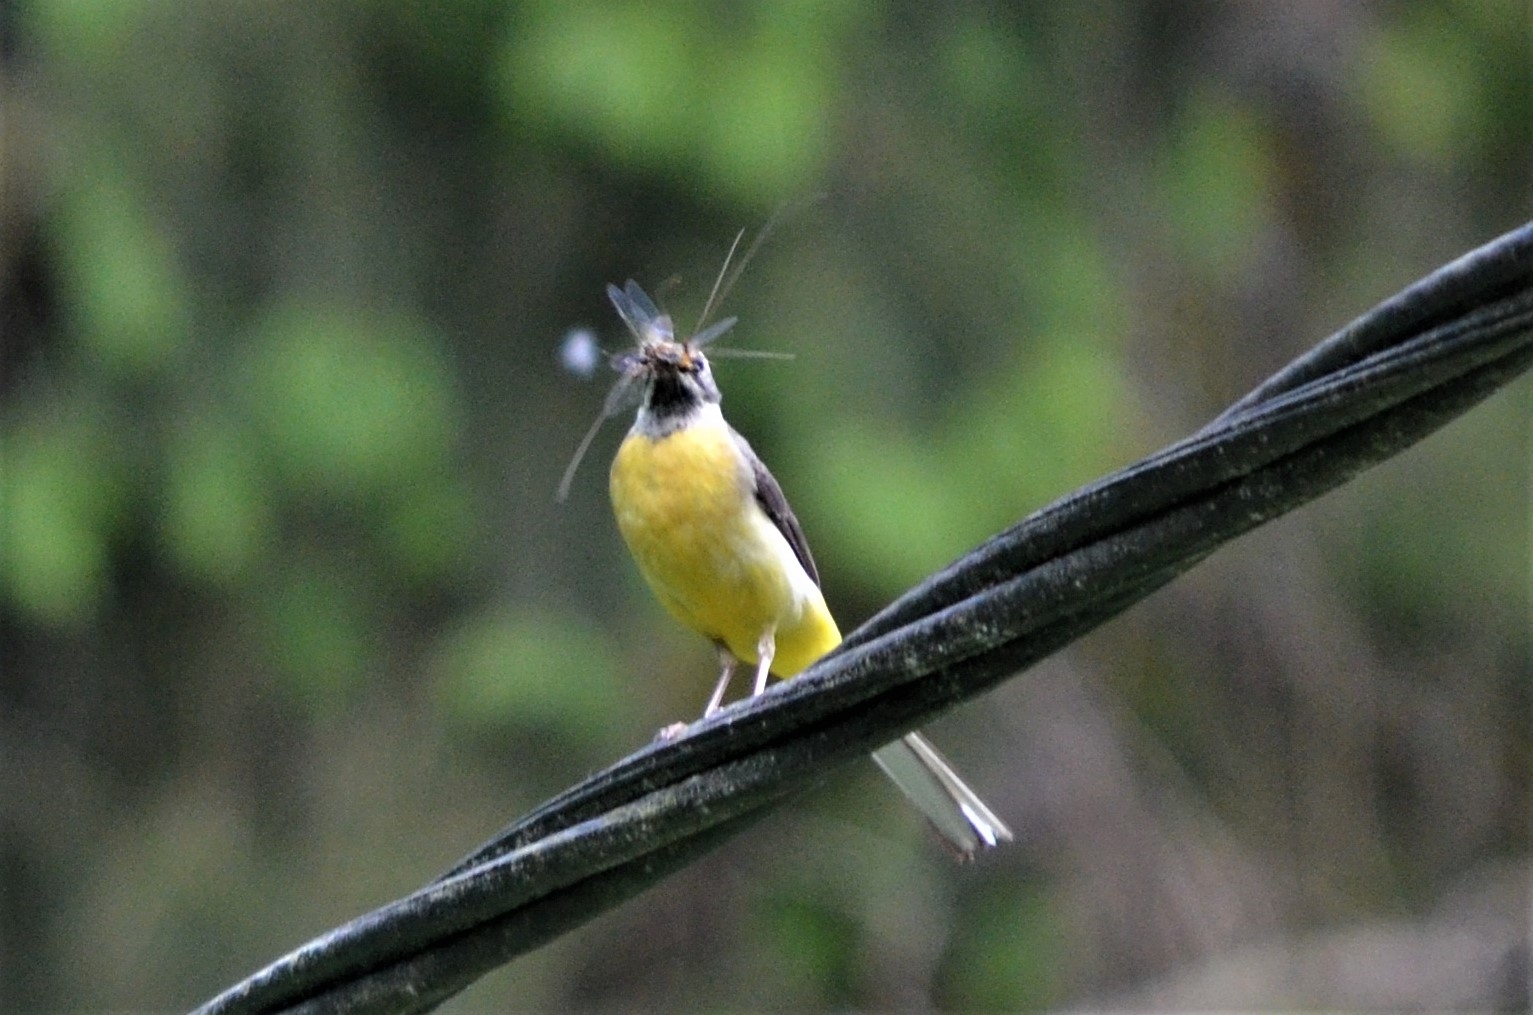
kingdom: Animalia
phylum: Chordata
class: Aves
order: Passeriformes
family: Motacillidae
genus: Motacilla
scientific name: Motacilla cinerea
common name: Grey wagtail
